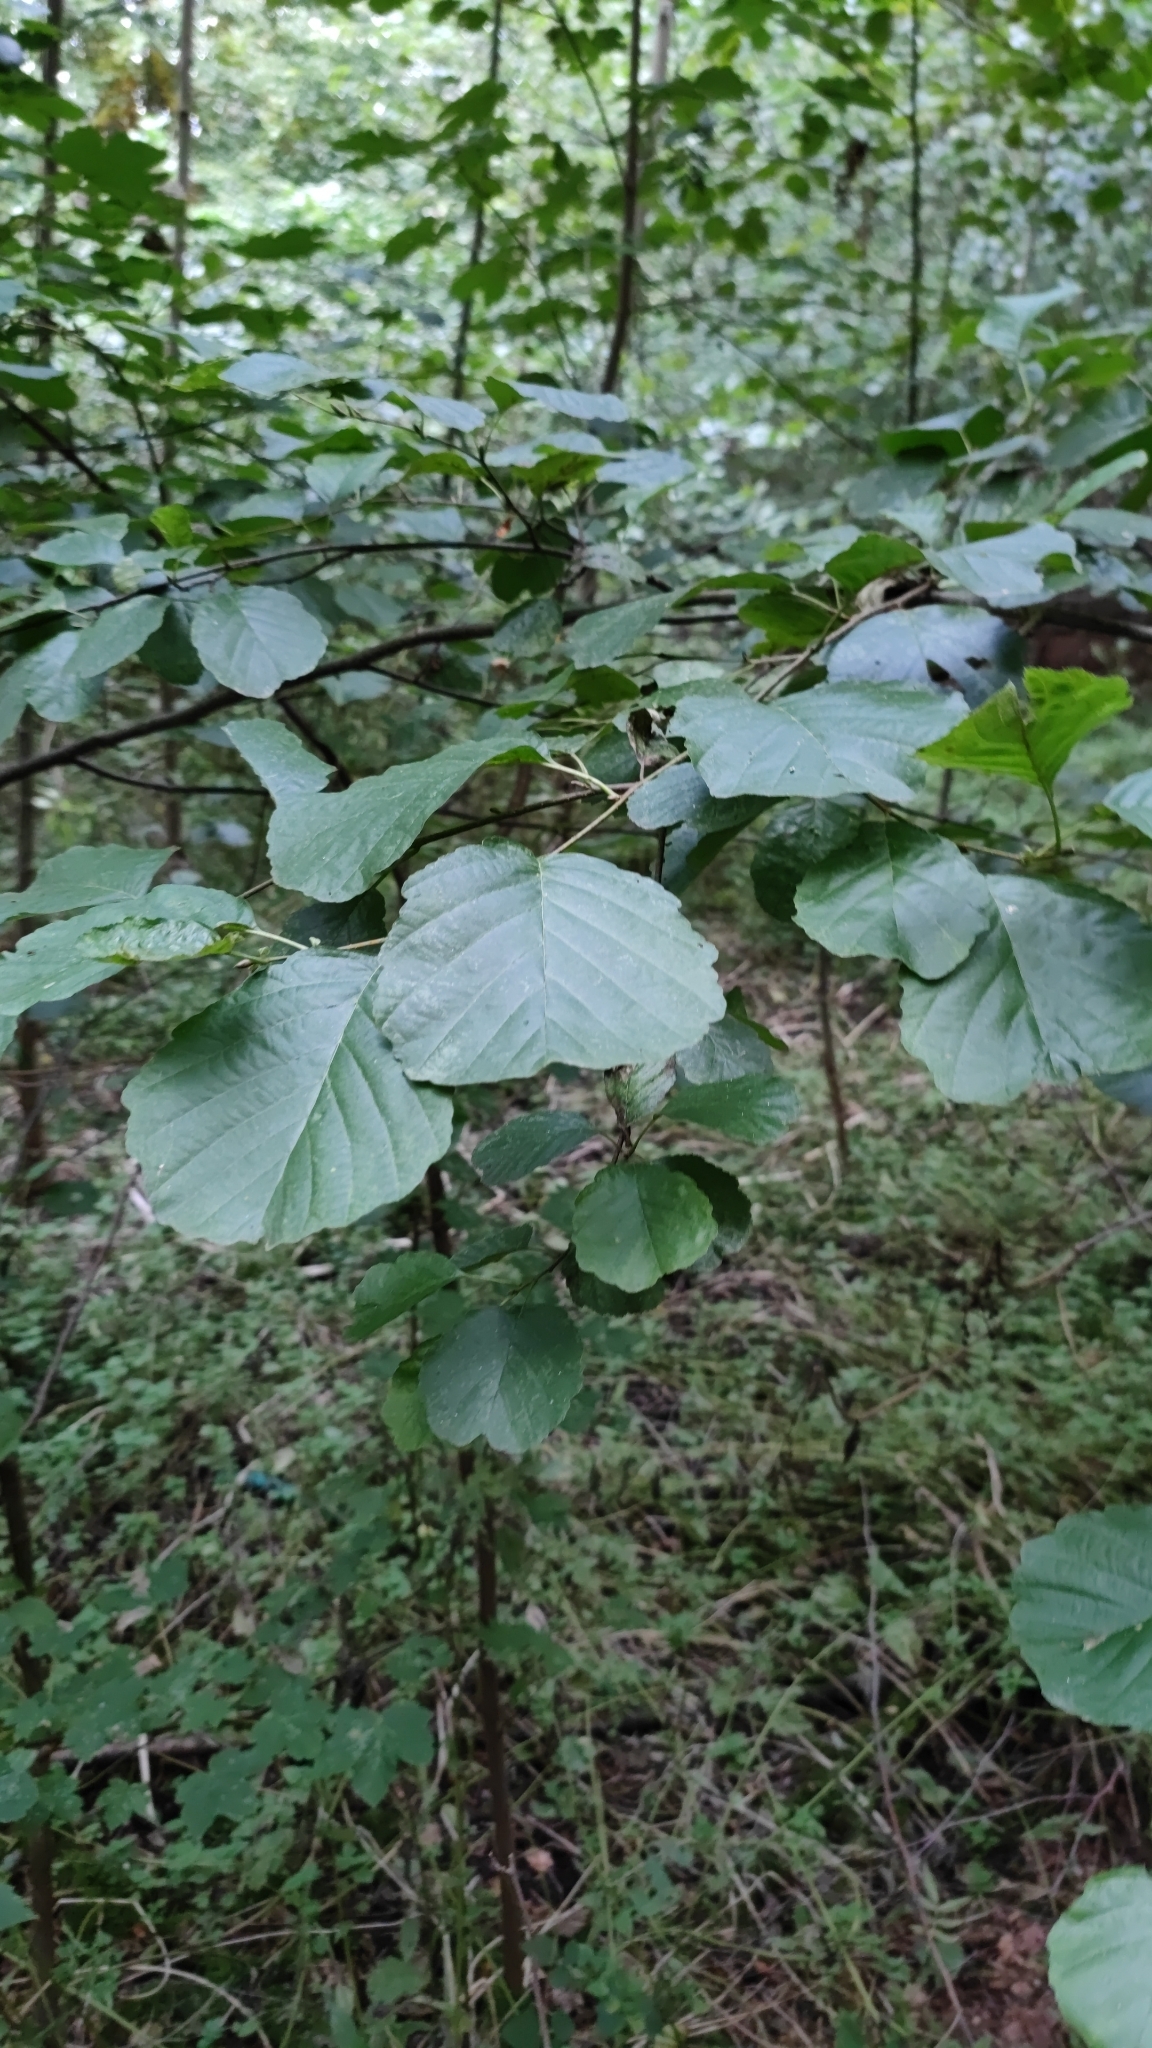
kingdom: Plantae
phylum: Tracheophyta
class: Magnoliopsida
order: Fagales
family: Betulaceae
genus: Alnus
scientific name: Alnus glutinosa
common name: Black alder
